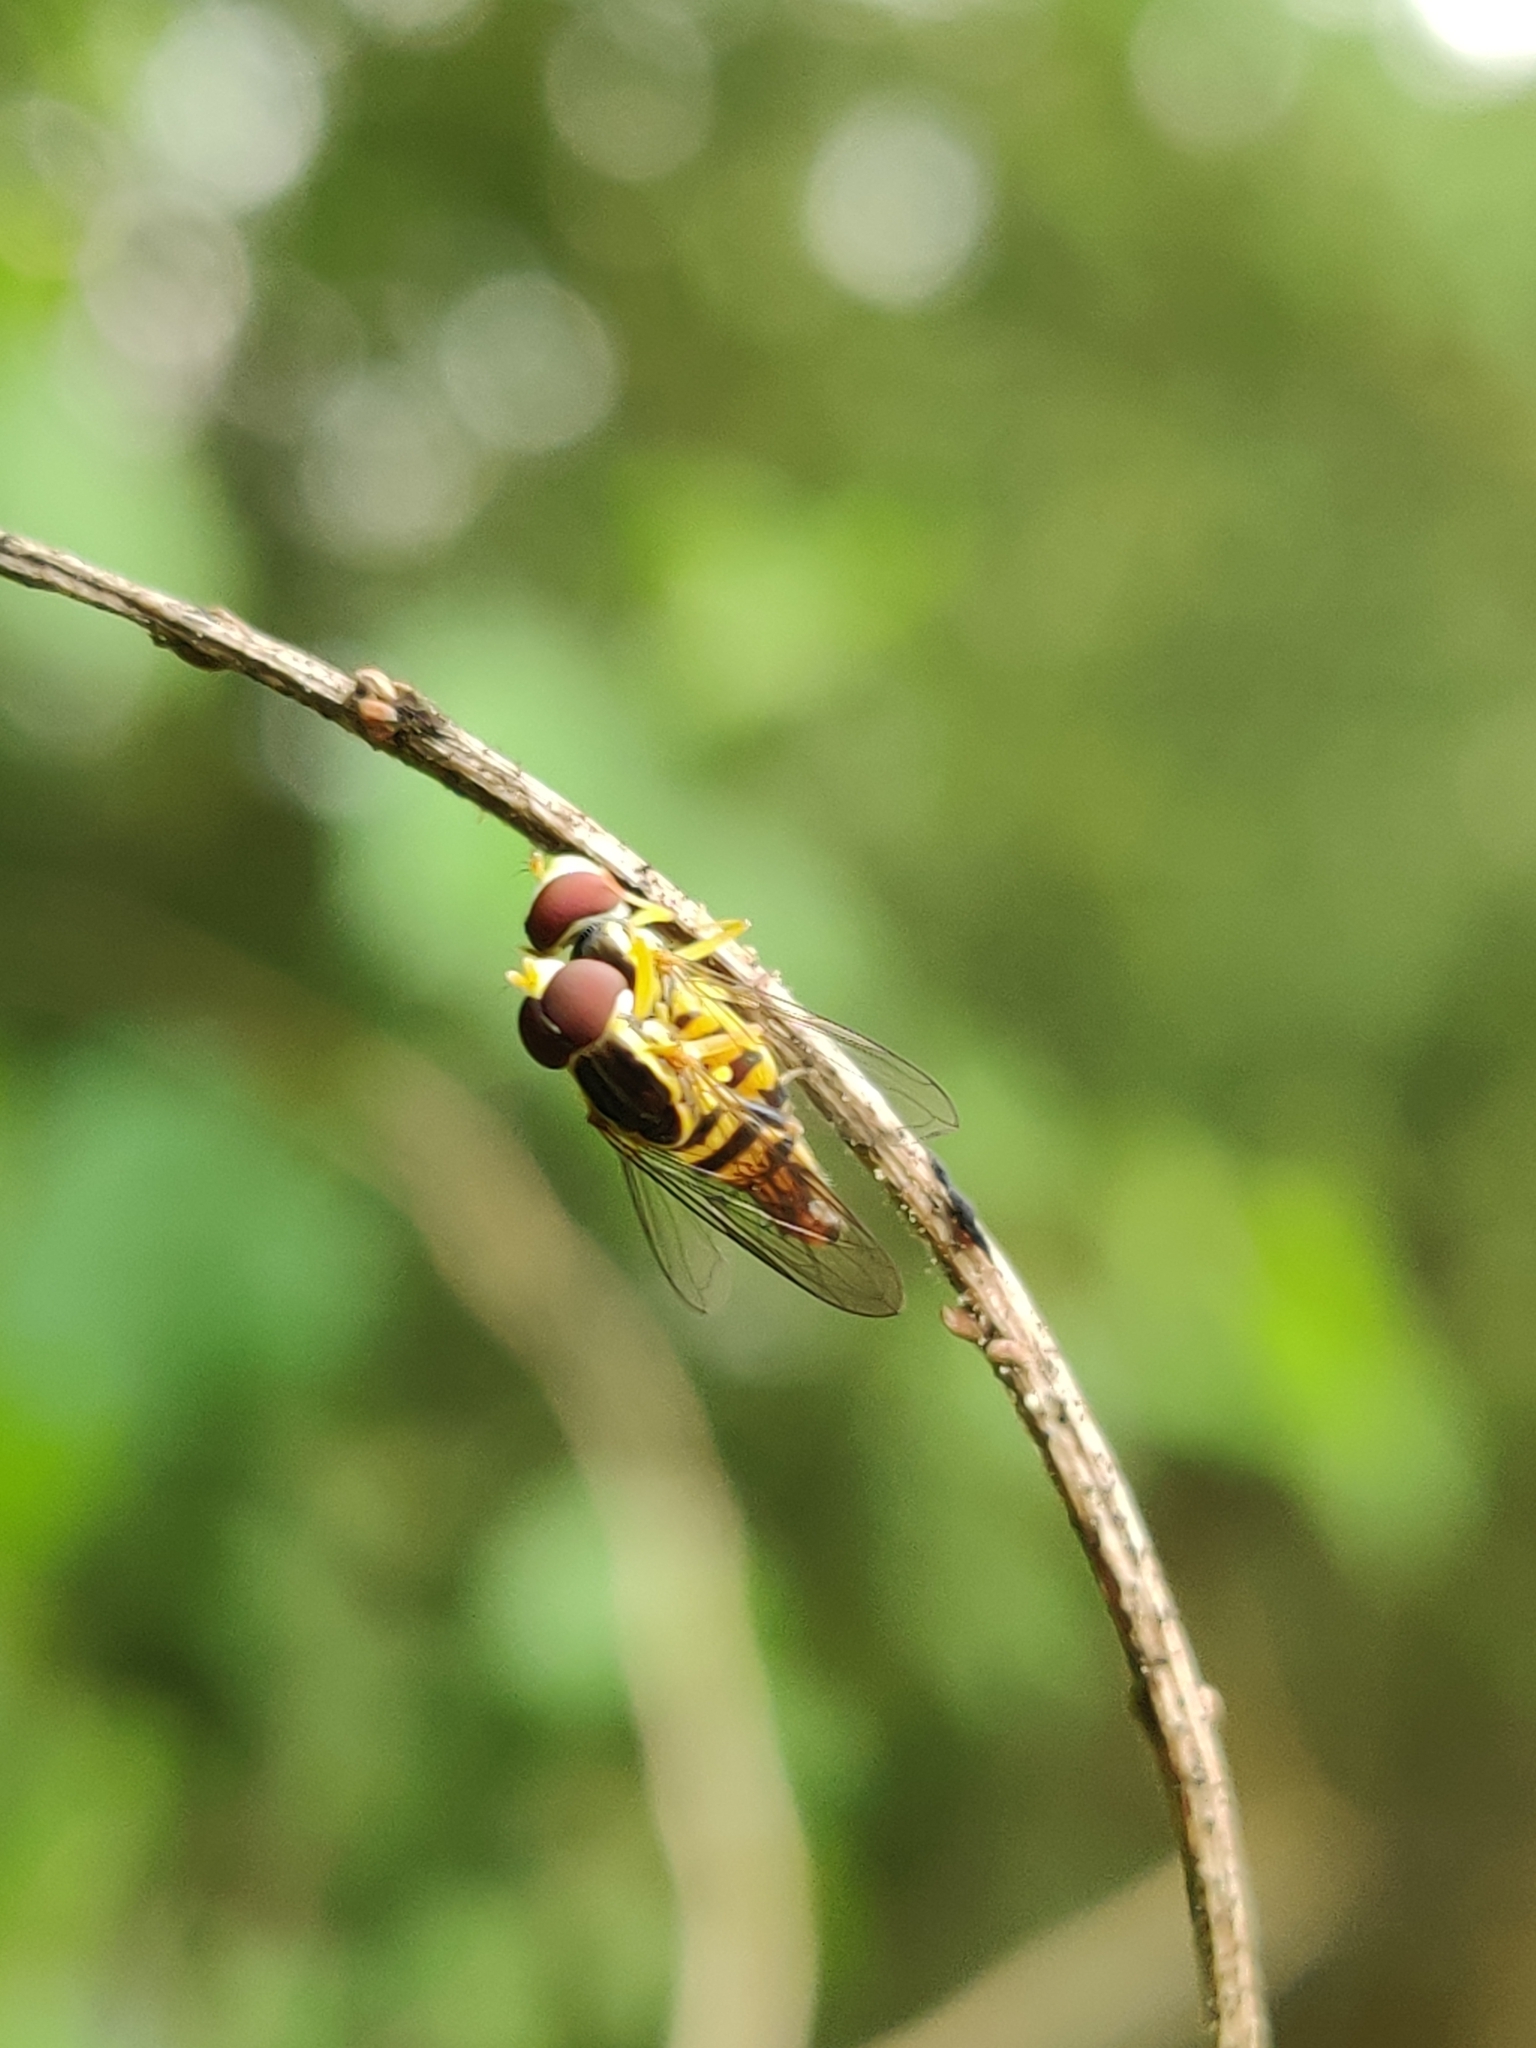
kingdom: Animalia
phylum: Arthropoda
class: Insecta
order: Diptera
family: Syrphidae
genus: Toxomerus
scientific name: Toxomerus geminatus
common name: Eastern calligrapher
